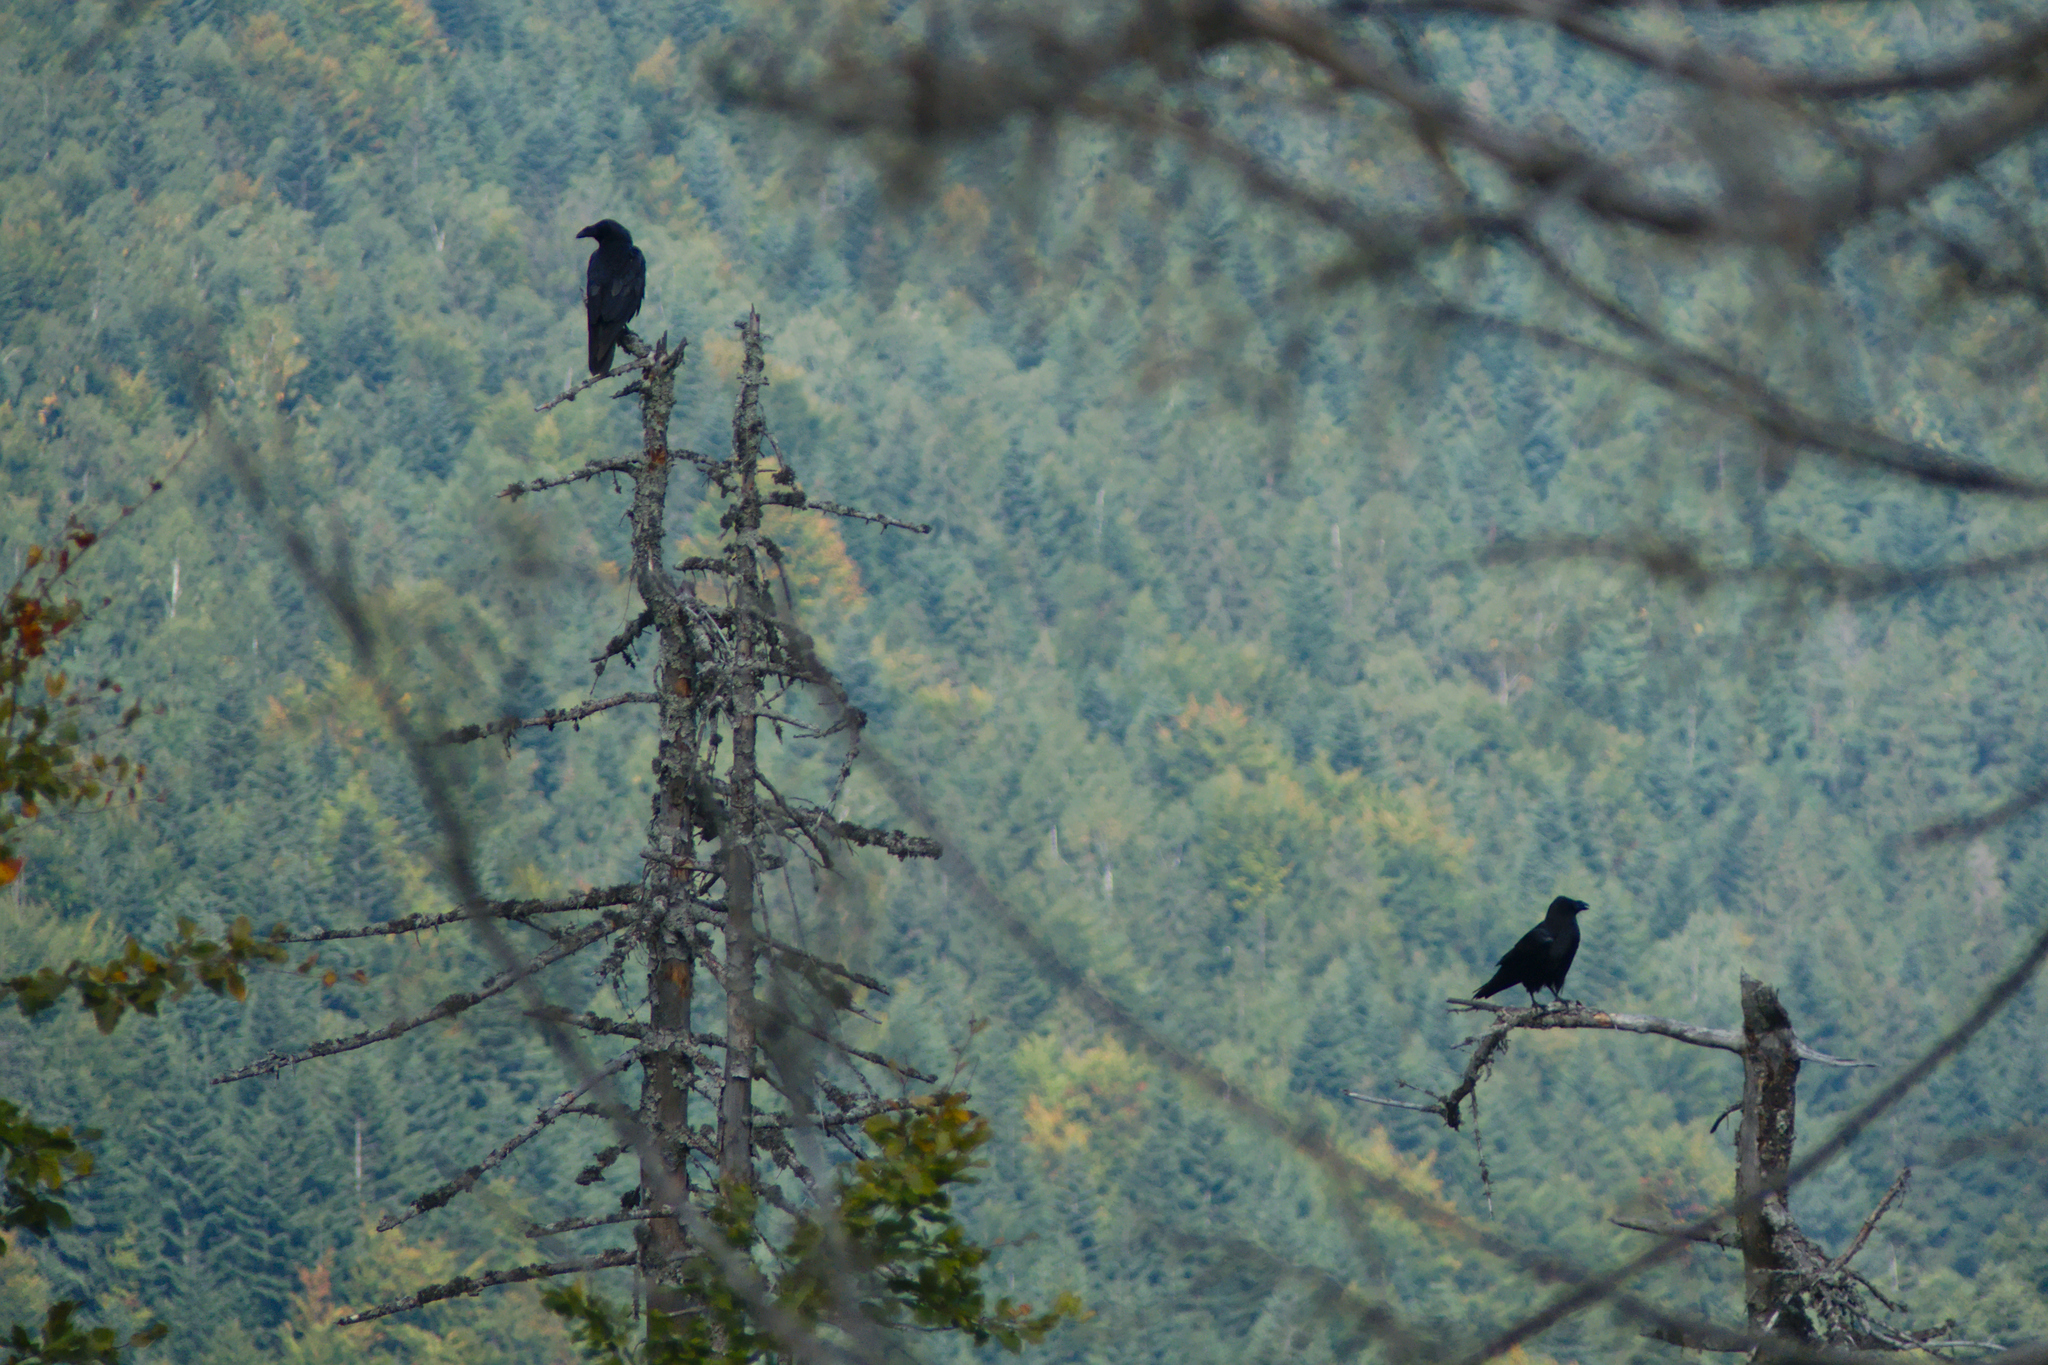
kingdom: Animalia
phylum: Chordata
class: Aves
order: Passeriformes
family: Corvidae
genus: Corvus
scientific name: Corvus corax
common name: Common raven
